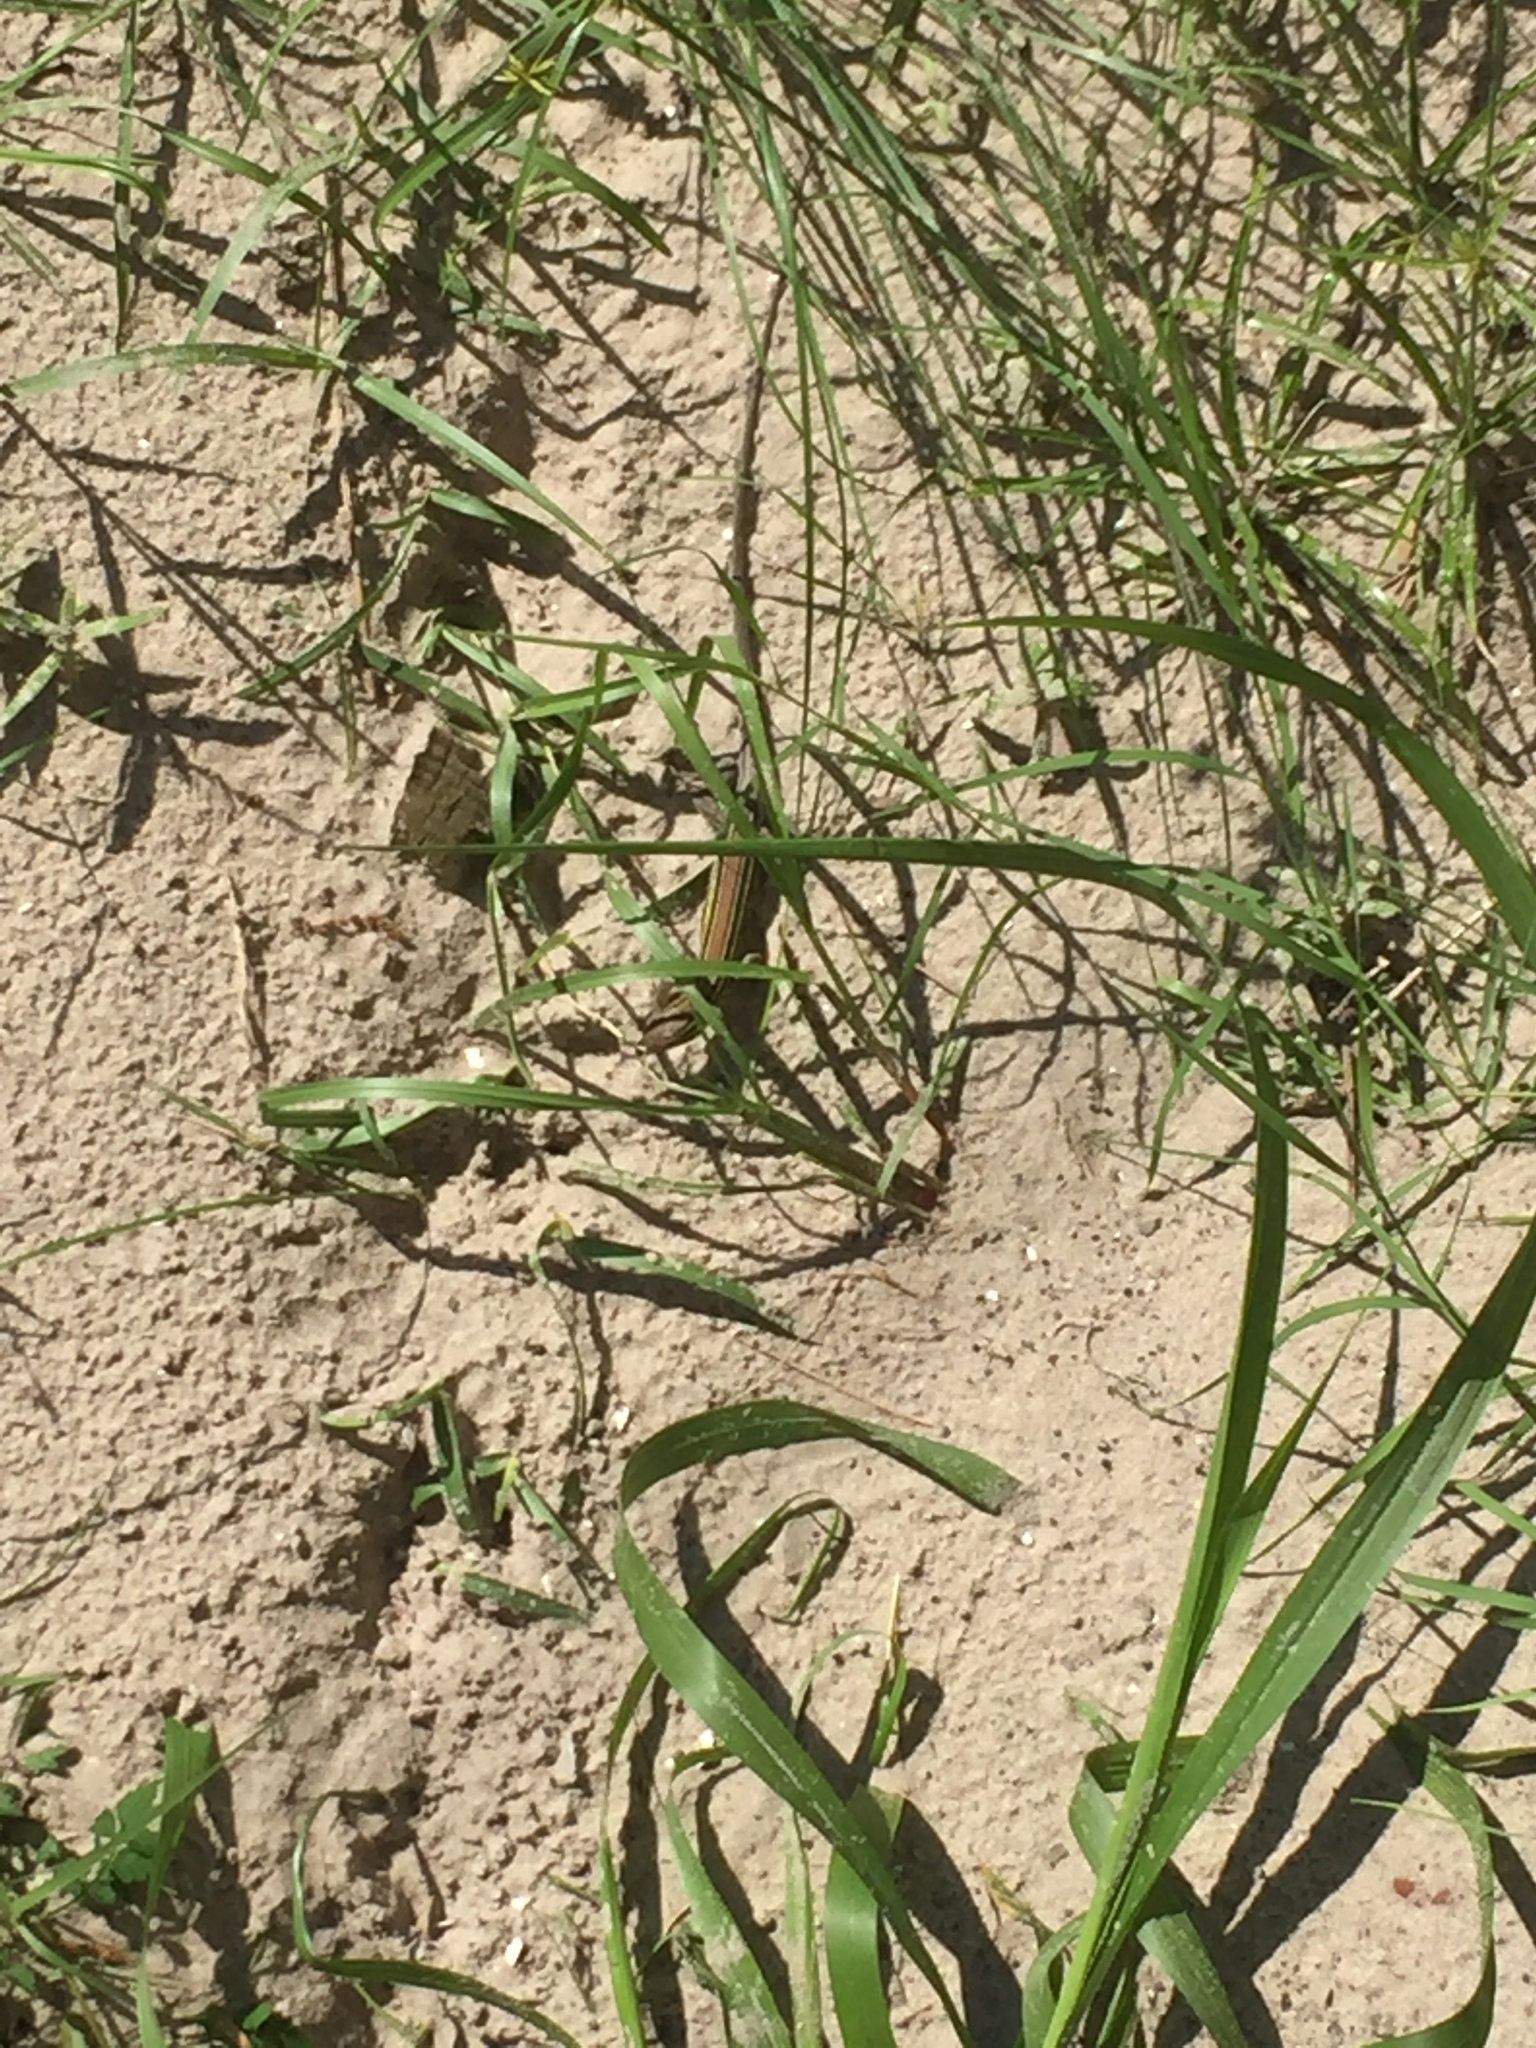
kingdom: Animalia
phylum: Chordata
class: Squamata
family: Teiidae
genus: Aspidoscelis
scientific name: Aspidoscelis sexlineatus
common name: Six-lined racerunner
